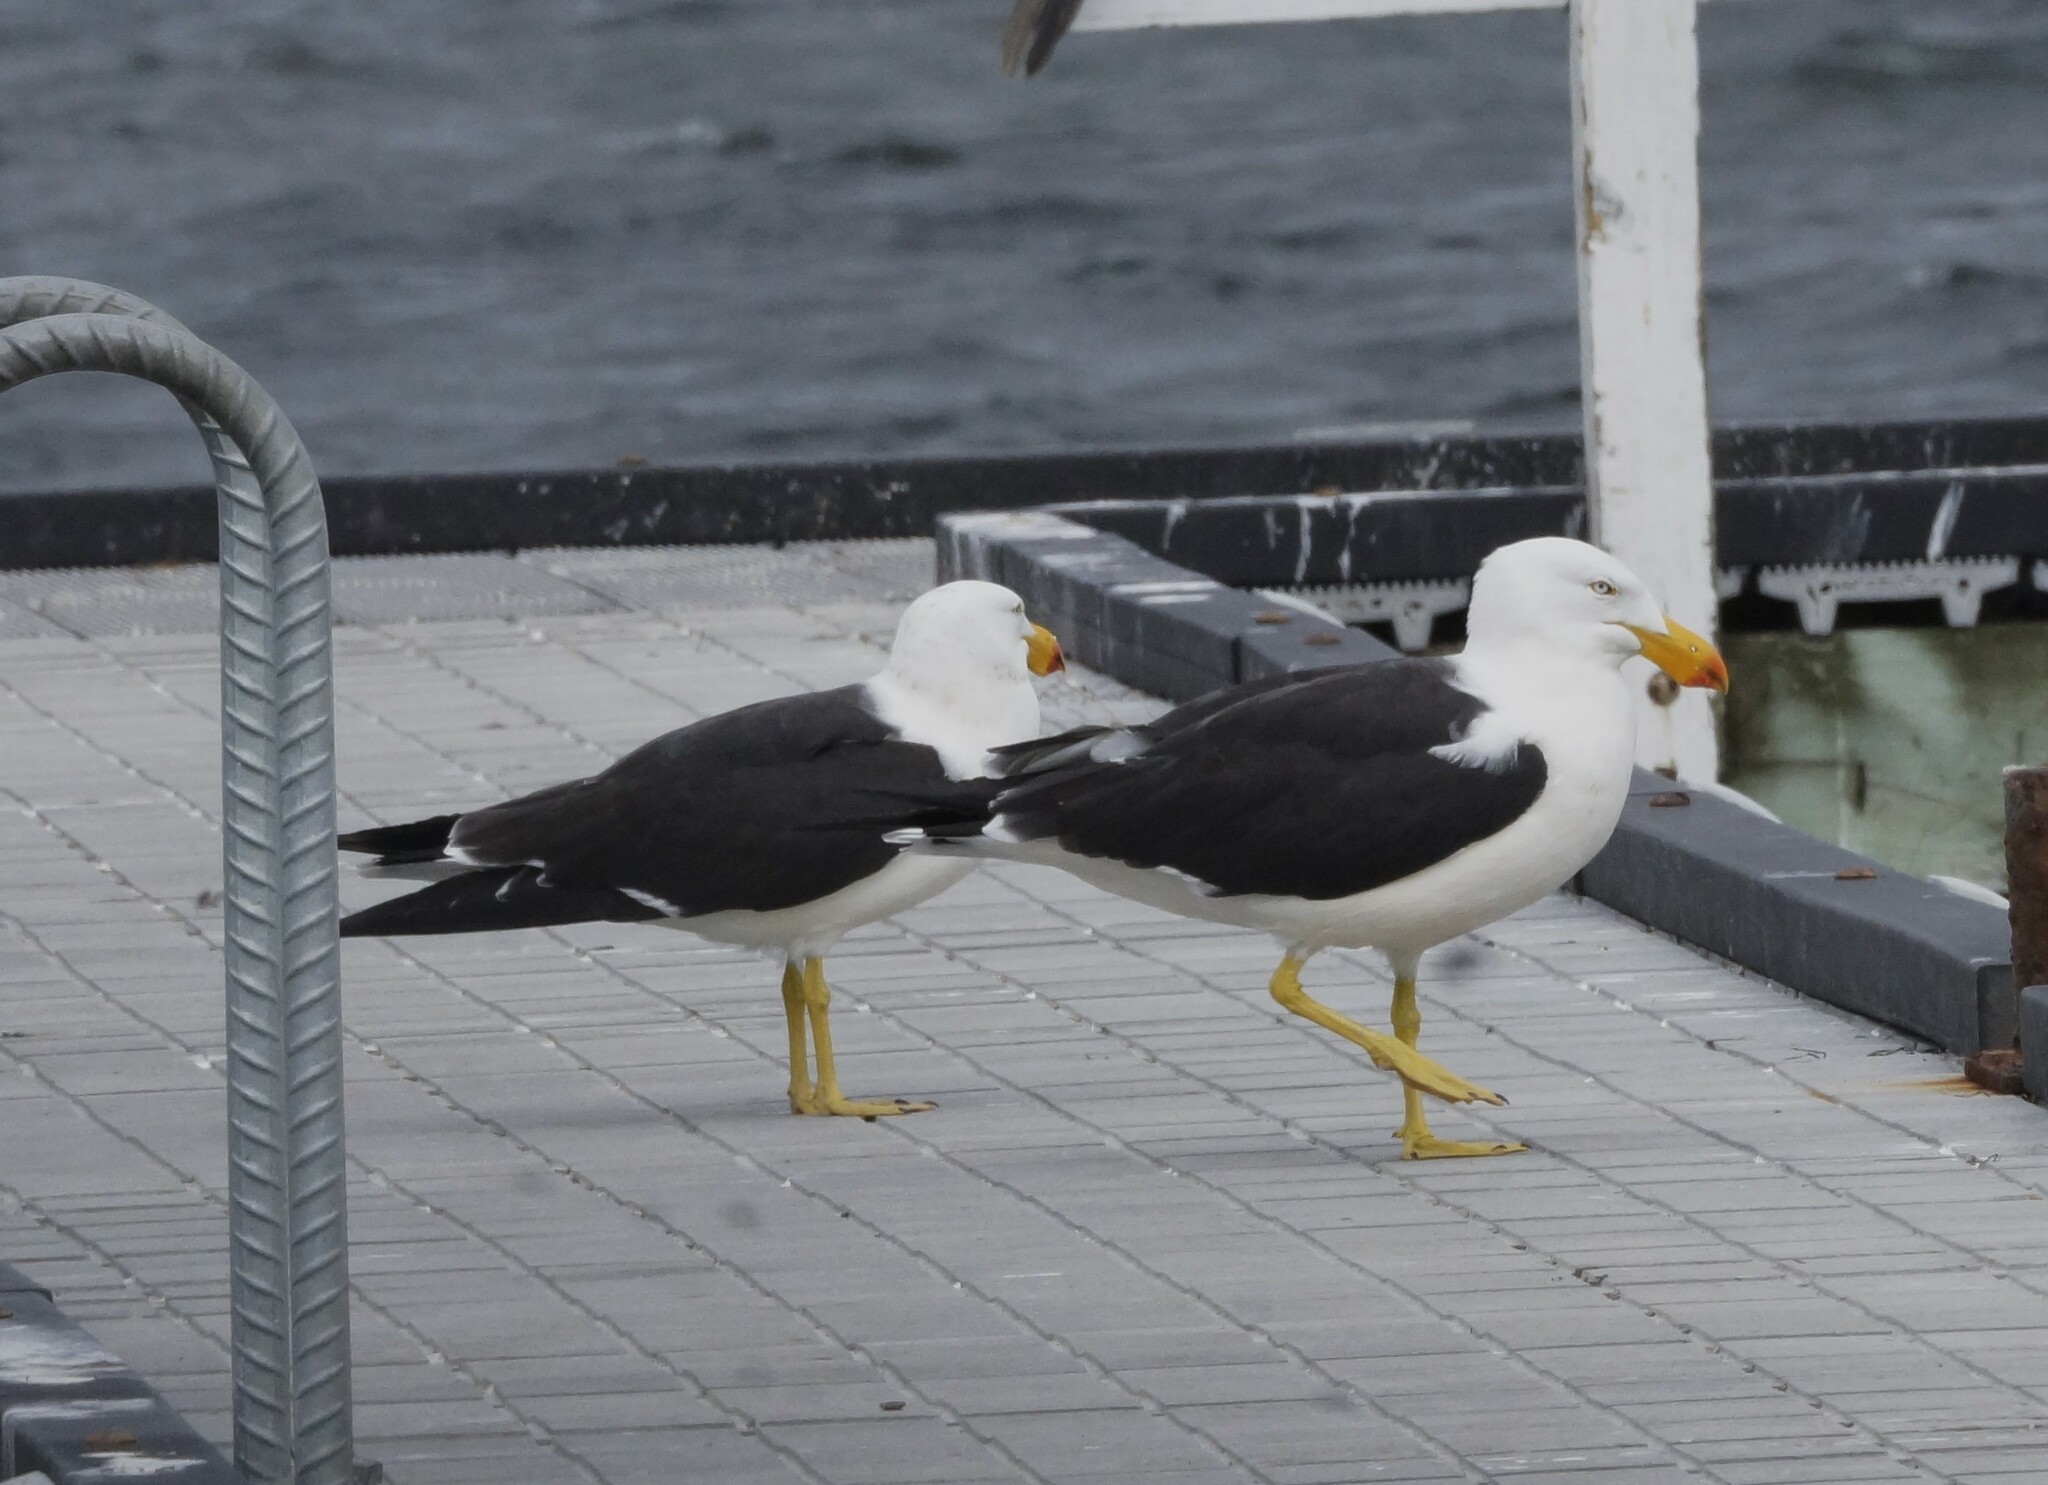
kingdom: Animalia
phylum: Chordata
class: Aves
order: Charadriiformes
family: Laridae
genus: Larus
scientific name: Larus pacificus
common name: Pacific gull
